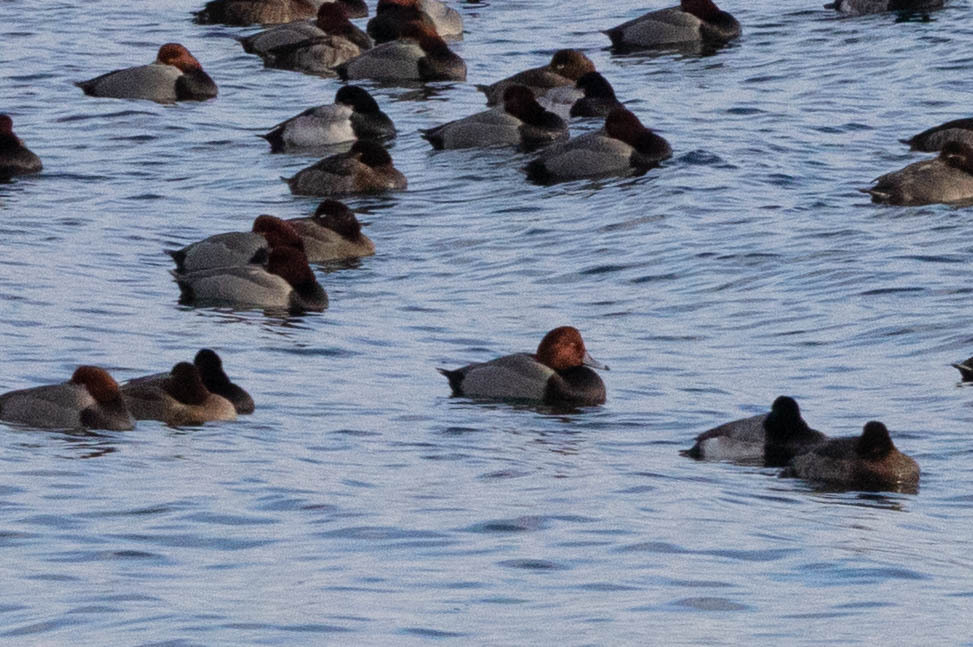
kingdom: Animalia
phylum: Chordata
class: Aves
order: Anseriformes
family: Anatidae
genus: Aythya
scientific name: Aythya americana
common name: Redhead
